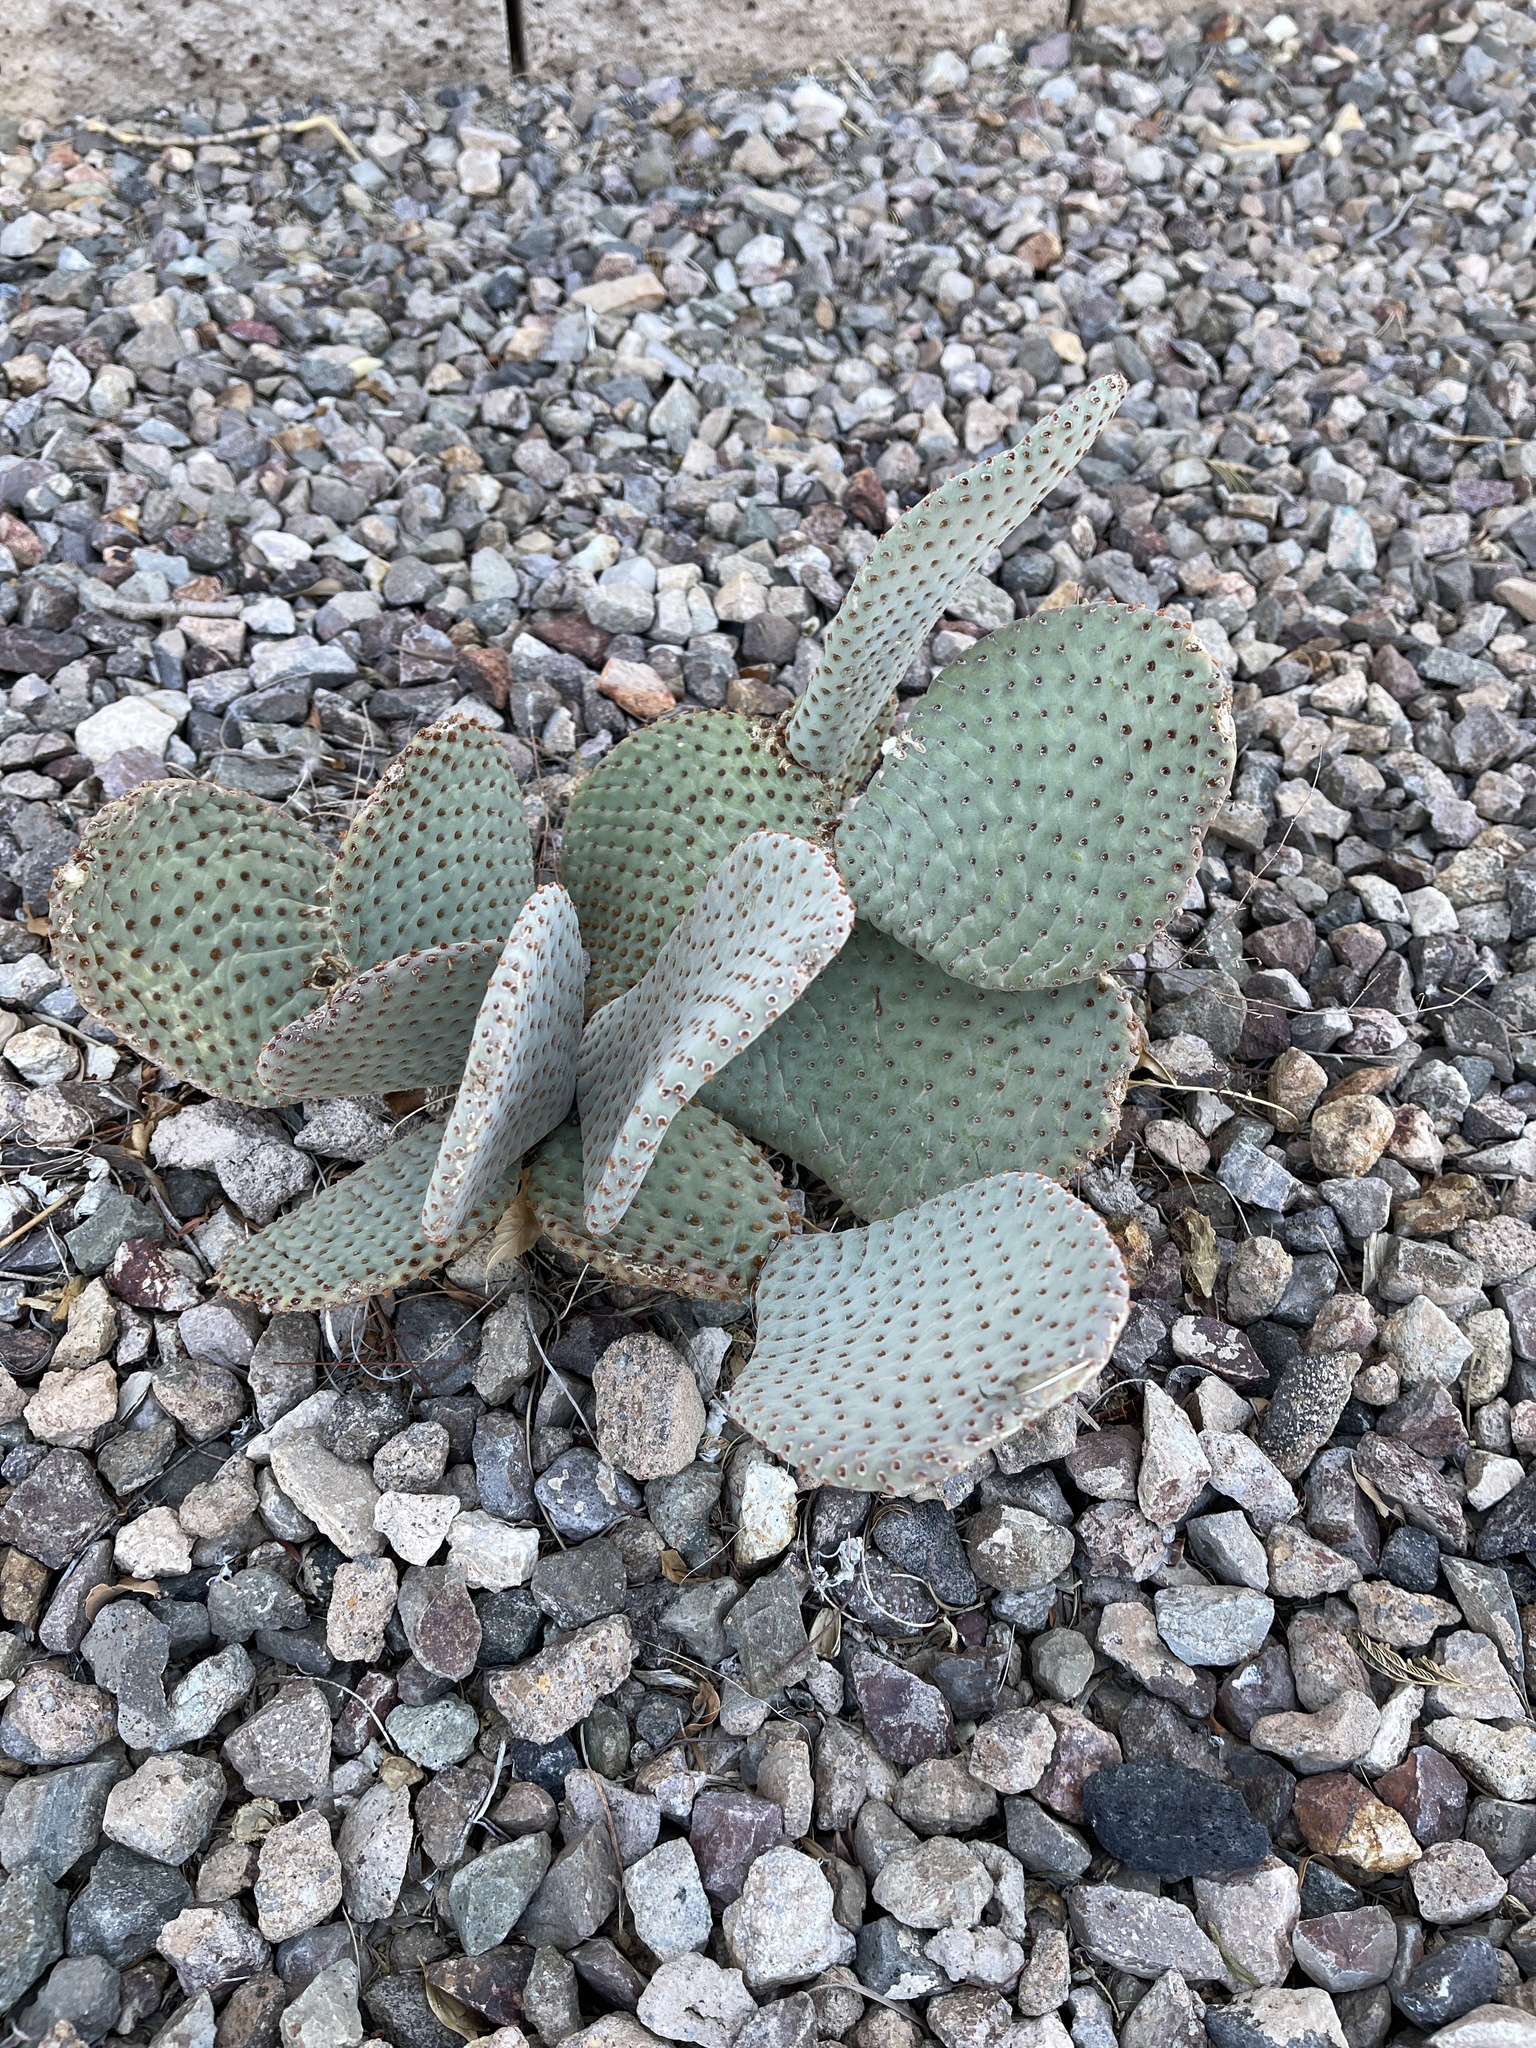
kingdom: Plantae
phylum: Tracheophyta
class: Magnoliopsida
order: Caryophyllales
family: Cactaceae
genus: Opuntia
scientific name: Opuntia basilaris
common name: Beavertail prickly-pear
